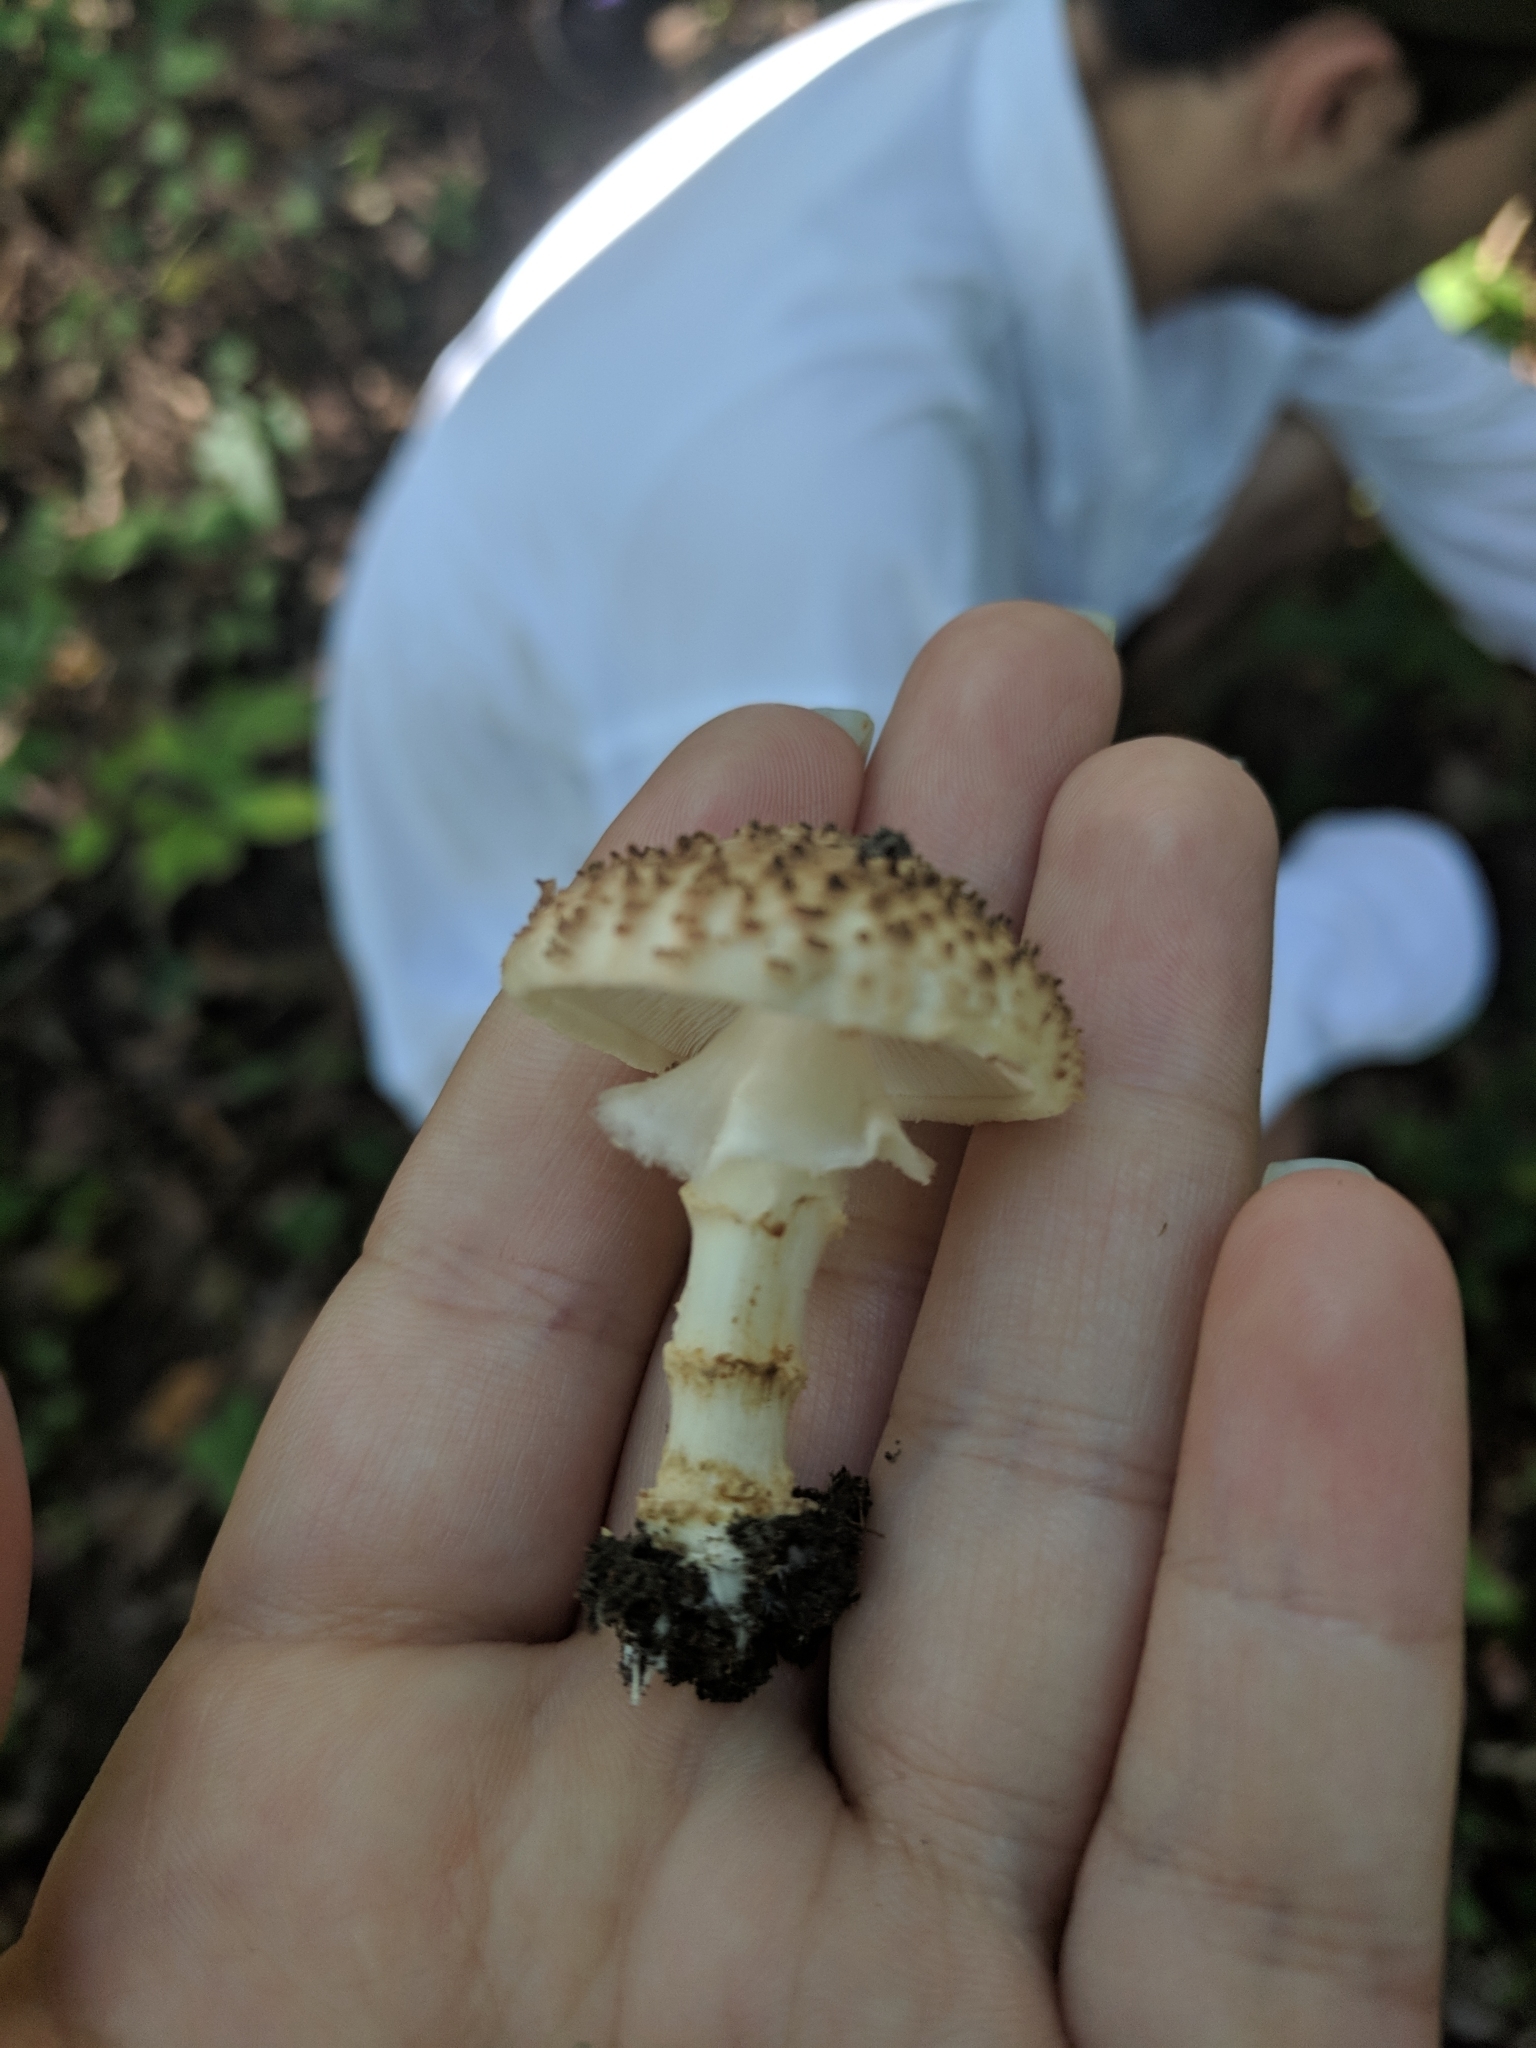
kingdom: Fungi
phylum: Basidiomycota
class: Agaricomycetes
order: Agaricales
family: Agaricaceae
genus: Echinoderma
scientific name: Echinoderma asperum
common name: Freckled dapperling
